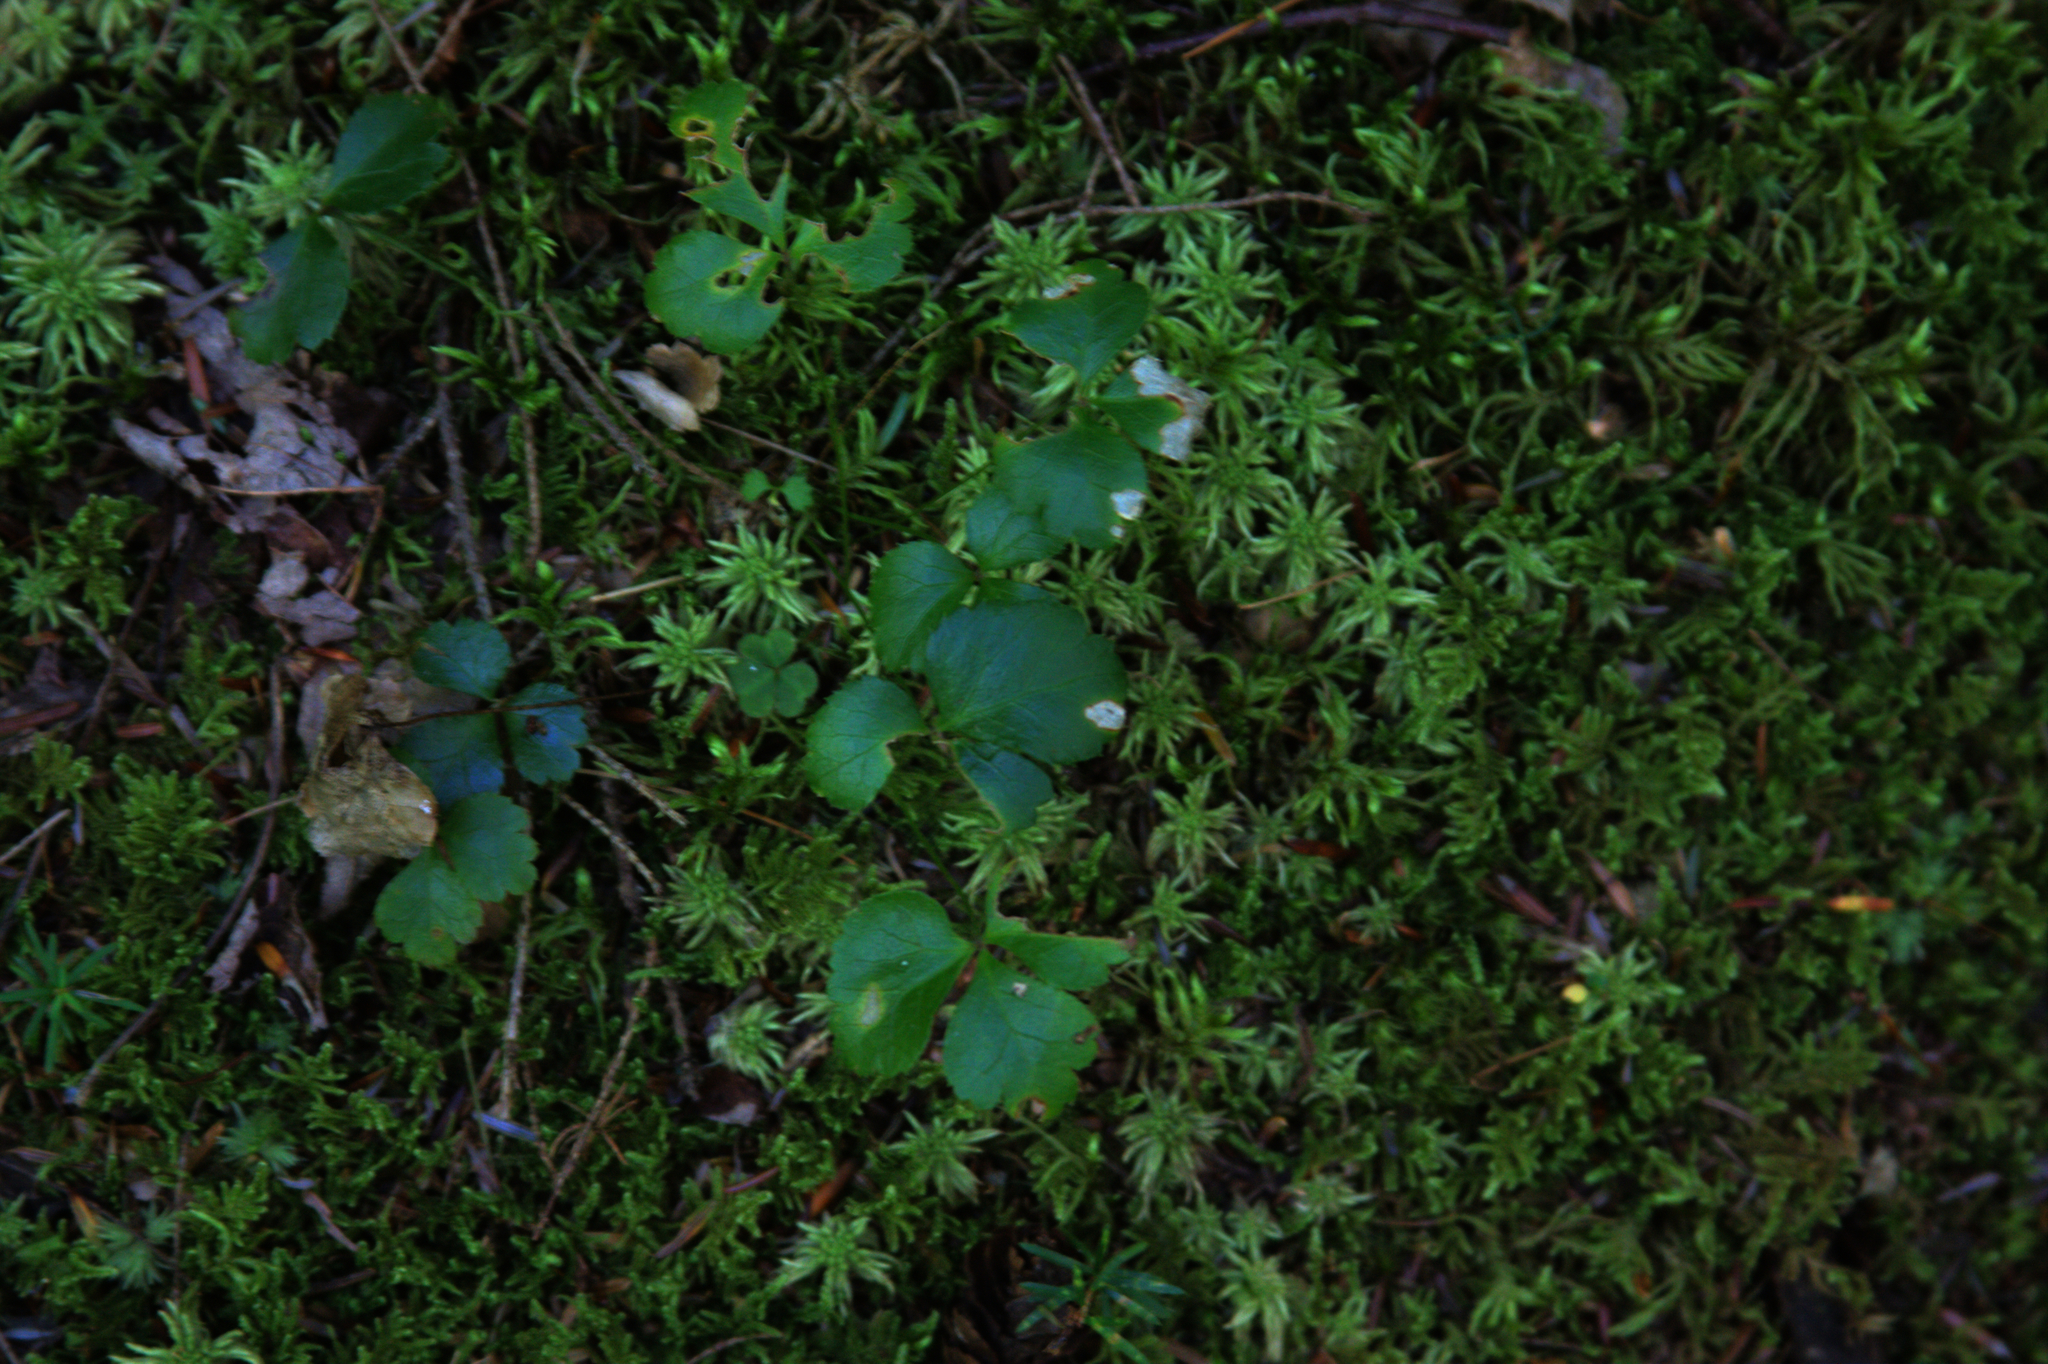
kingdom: Plantae
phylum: Tracheophyta
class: Magnoliopsida
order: Ranunculales
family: Ranunculaceae
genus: Coptis
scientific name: Coptis trifolia
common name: Canker-root
